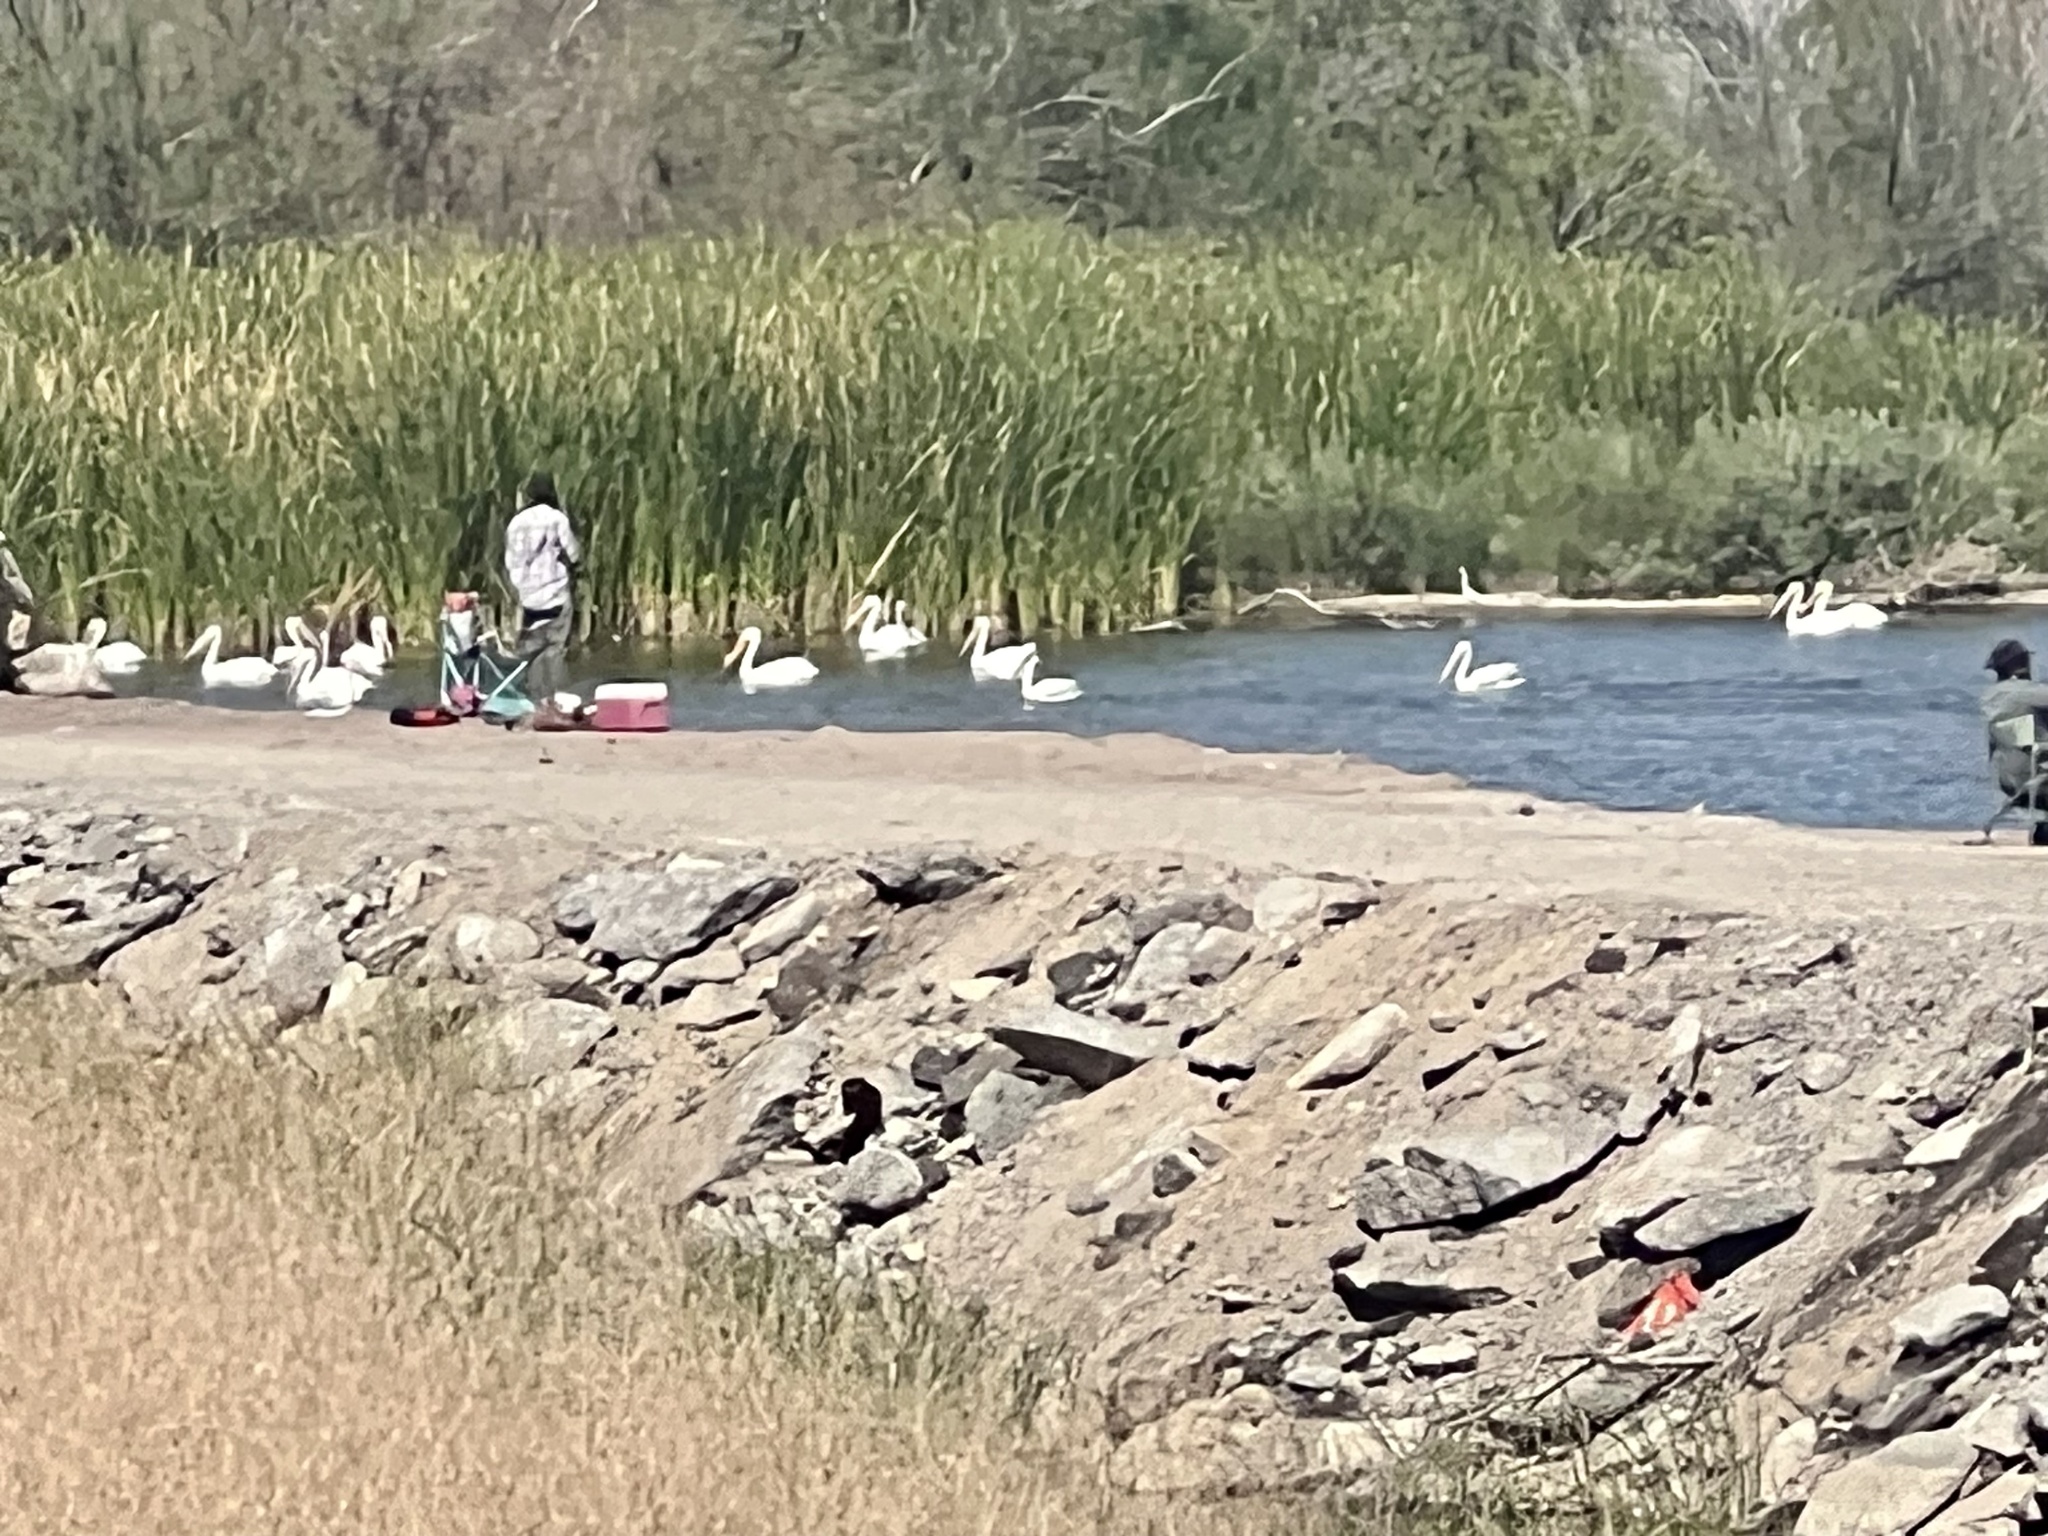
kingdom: Animalia
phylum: Chordata
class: Aves
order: Pelecaniformes
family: Pelecanidae
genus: Pelecanus
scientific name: Pelecanus erythrorhynchos
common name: American white pelican
